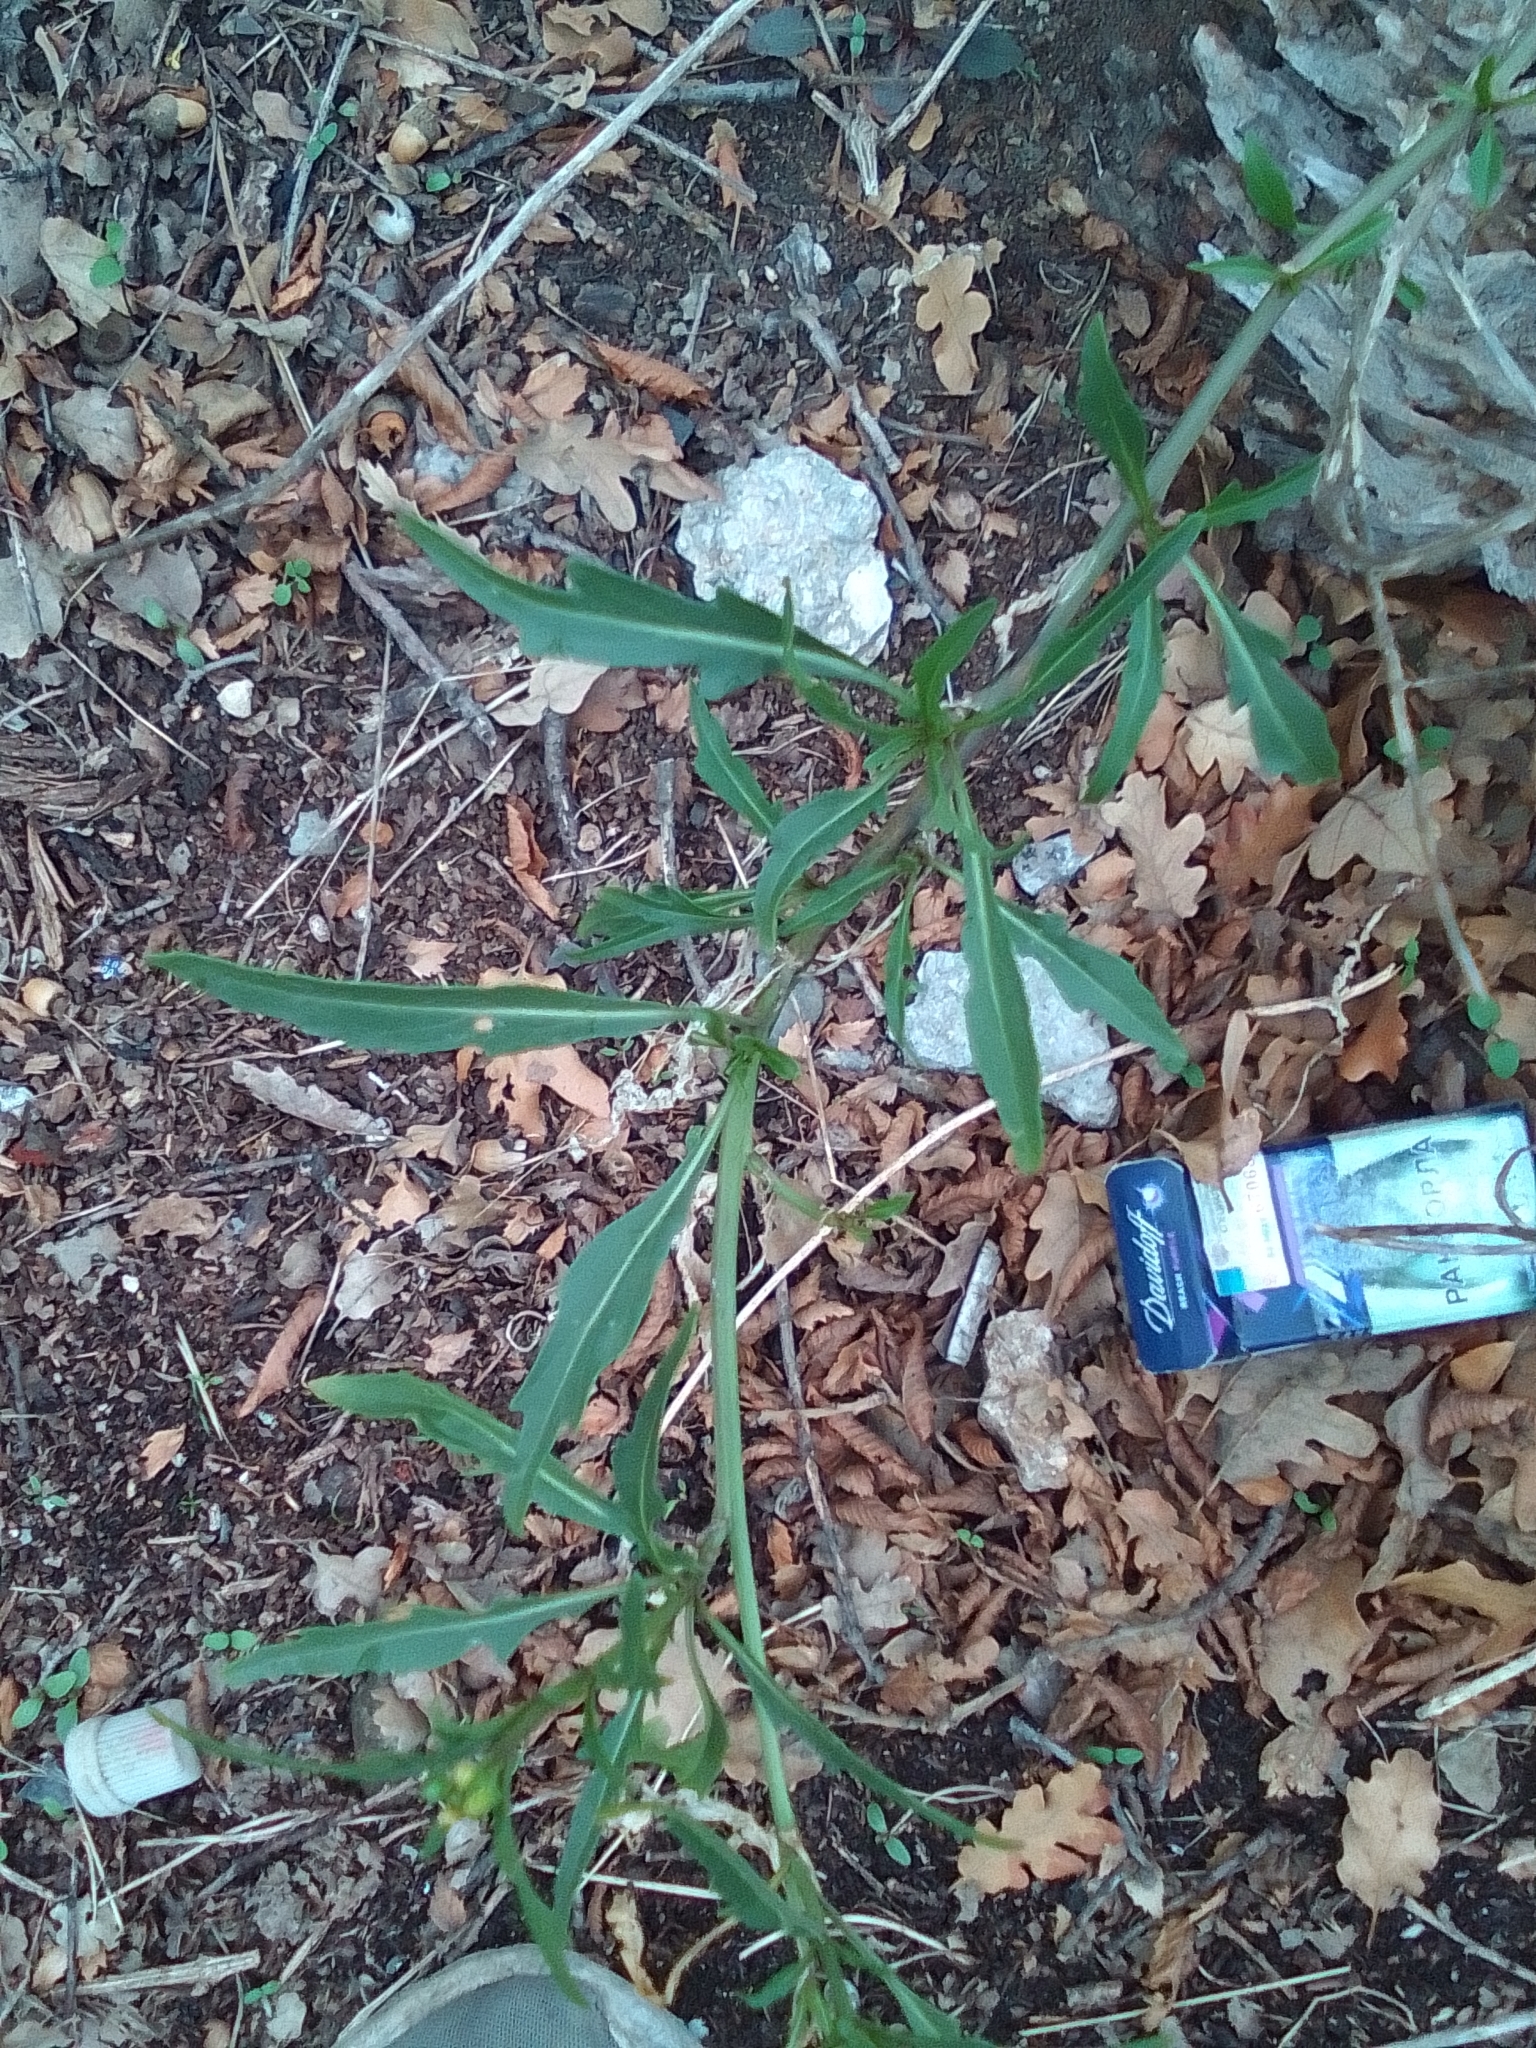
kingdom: Plantae
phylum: Tracheophyta
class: Magnoliopsida
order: Brassicales
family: Brassicaceae
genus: Diplotaxis
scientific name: Diplotaxis tenuifolia
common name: Perennial wall-rocket
